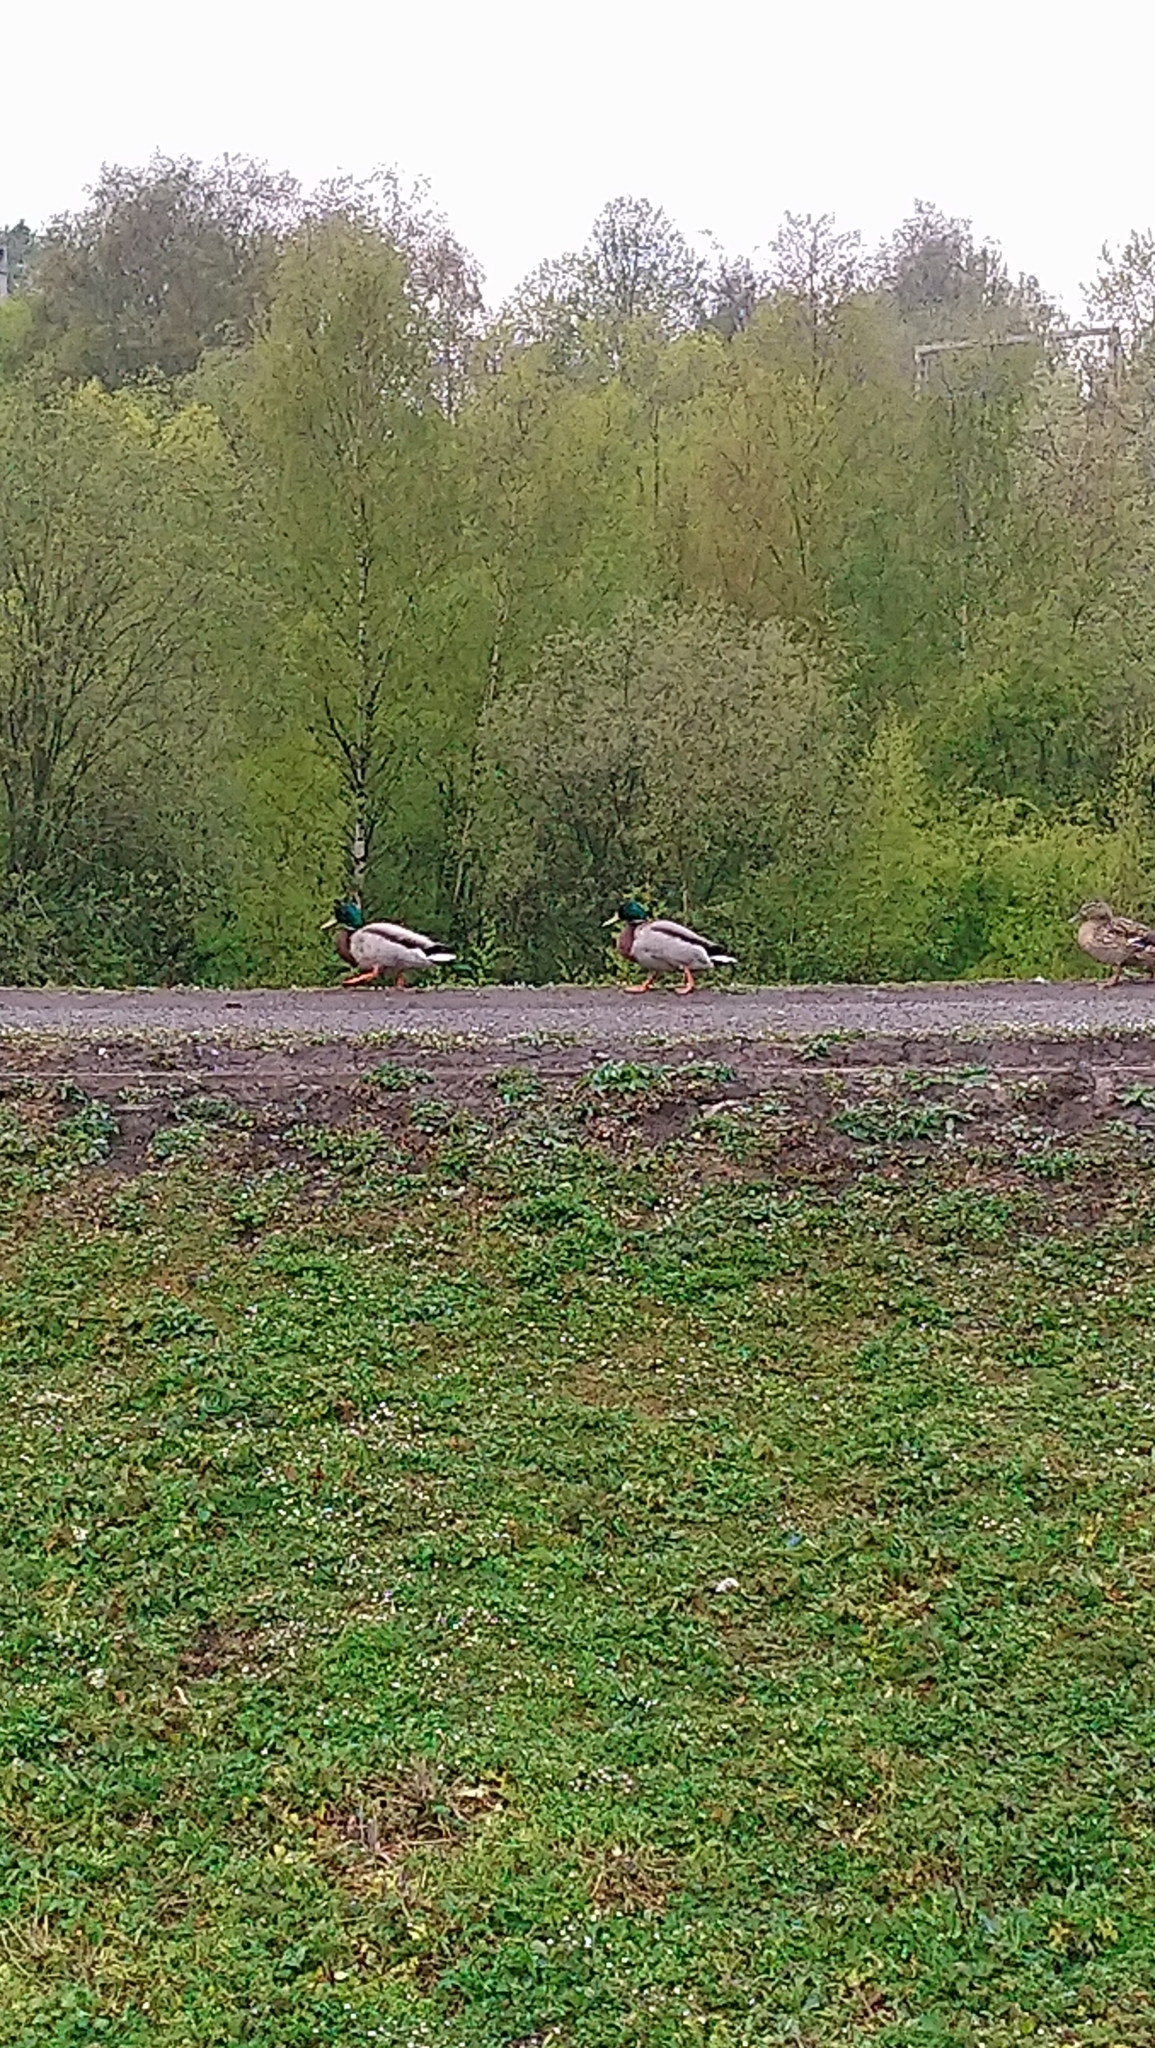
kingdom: Animalia
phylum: Chordata
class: Aves
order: Anseriformes
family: Anatidae
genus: Anas
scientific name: Anas platyrhynchos
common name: Mallard
